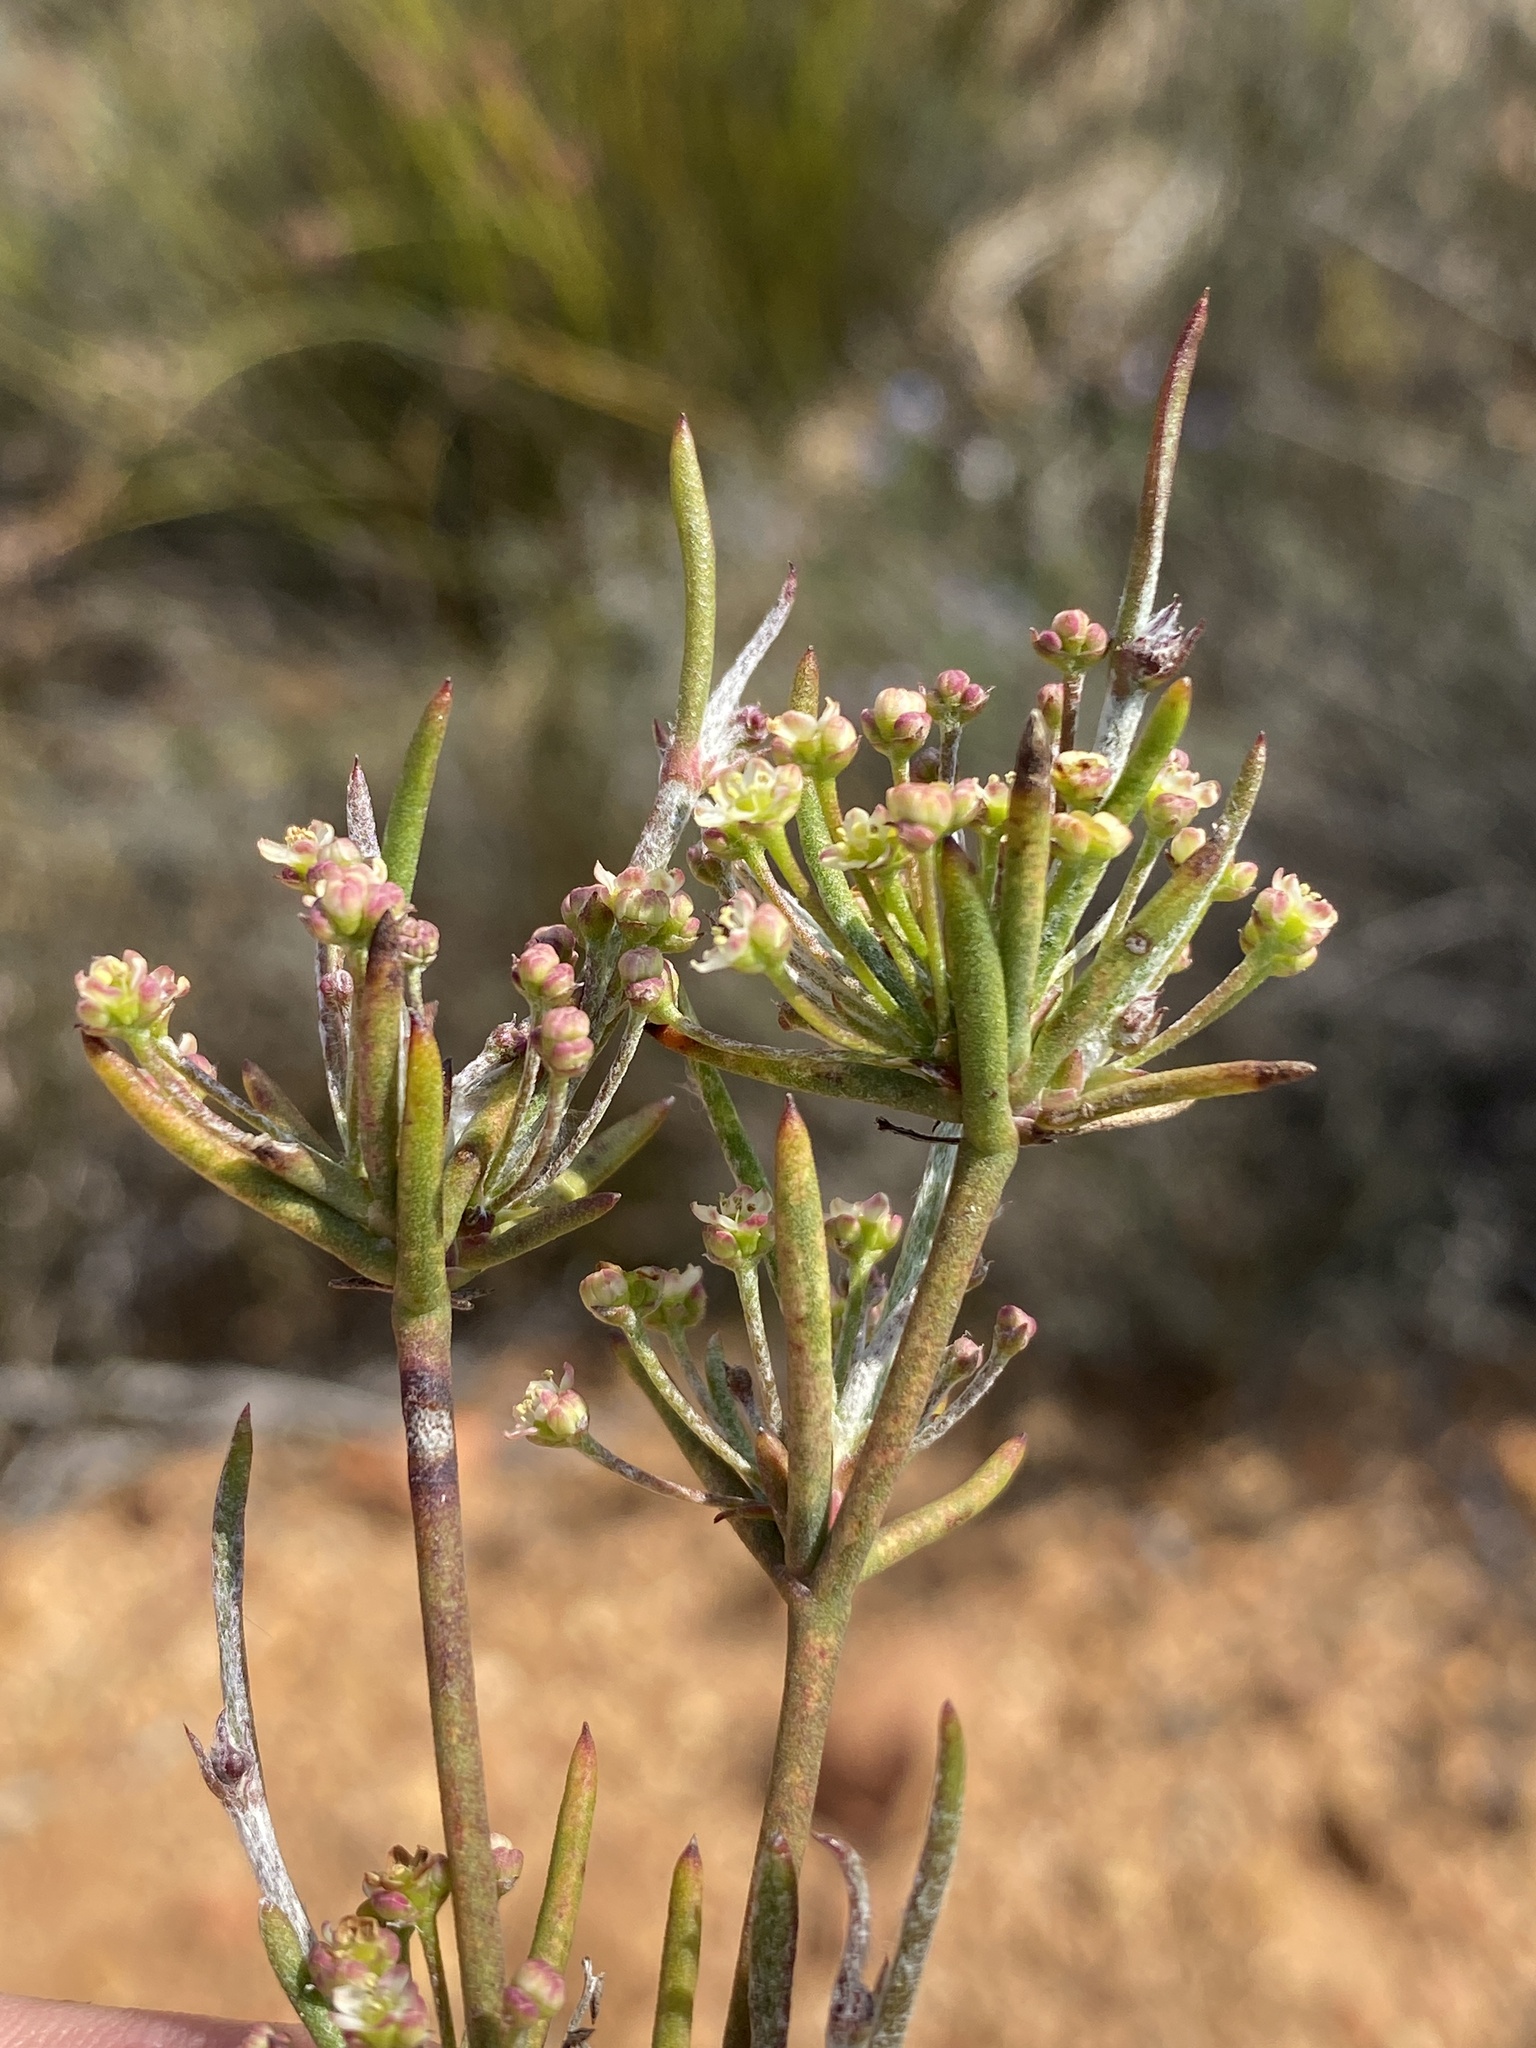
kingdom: Plantae
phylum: Tracheophyta
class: Magnoliopsida
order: Apiales
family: Apiaceae
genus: Centella
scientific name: Centella linifolia
